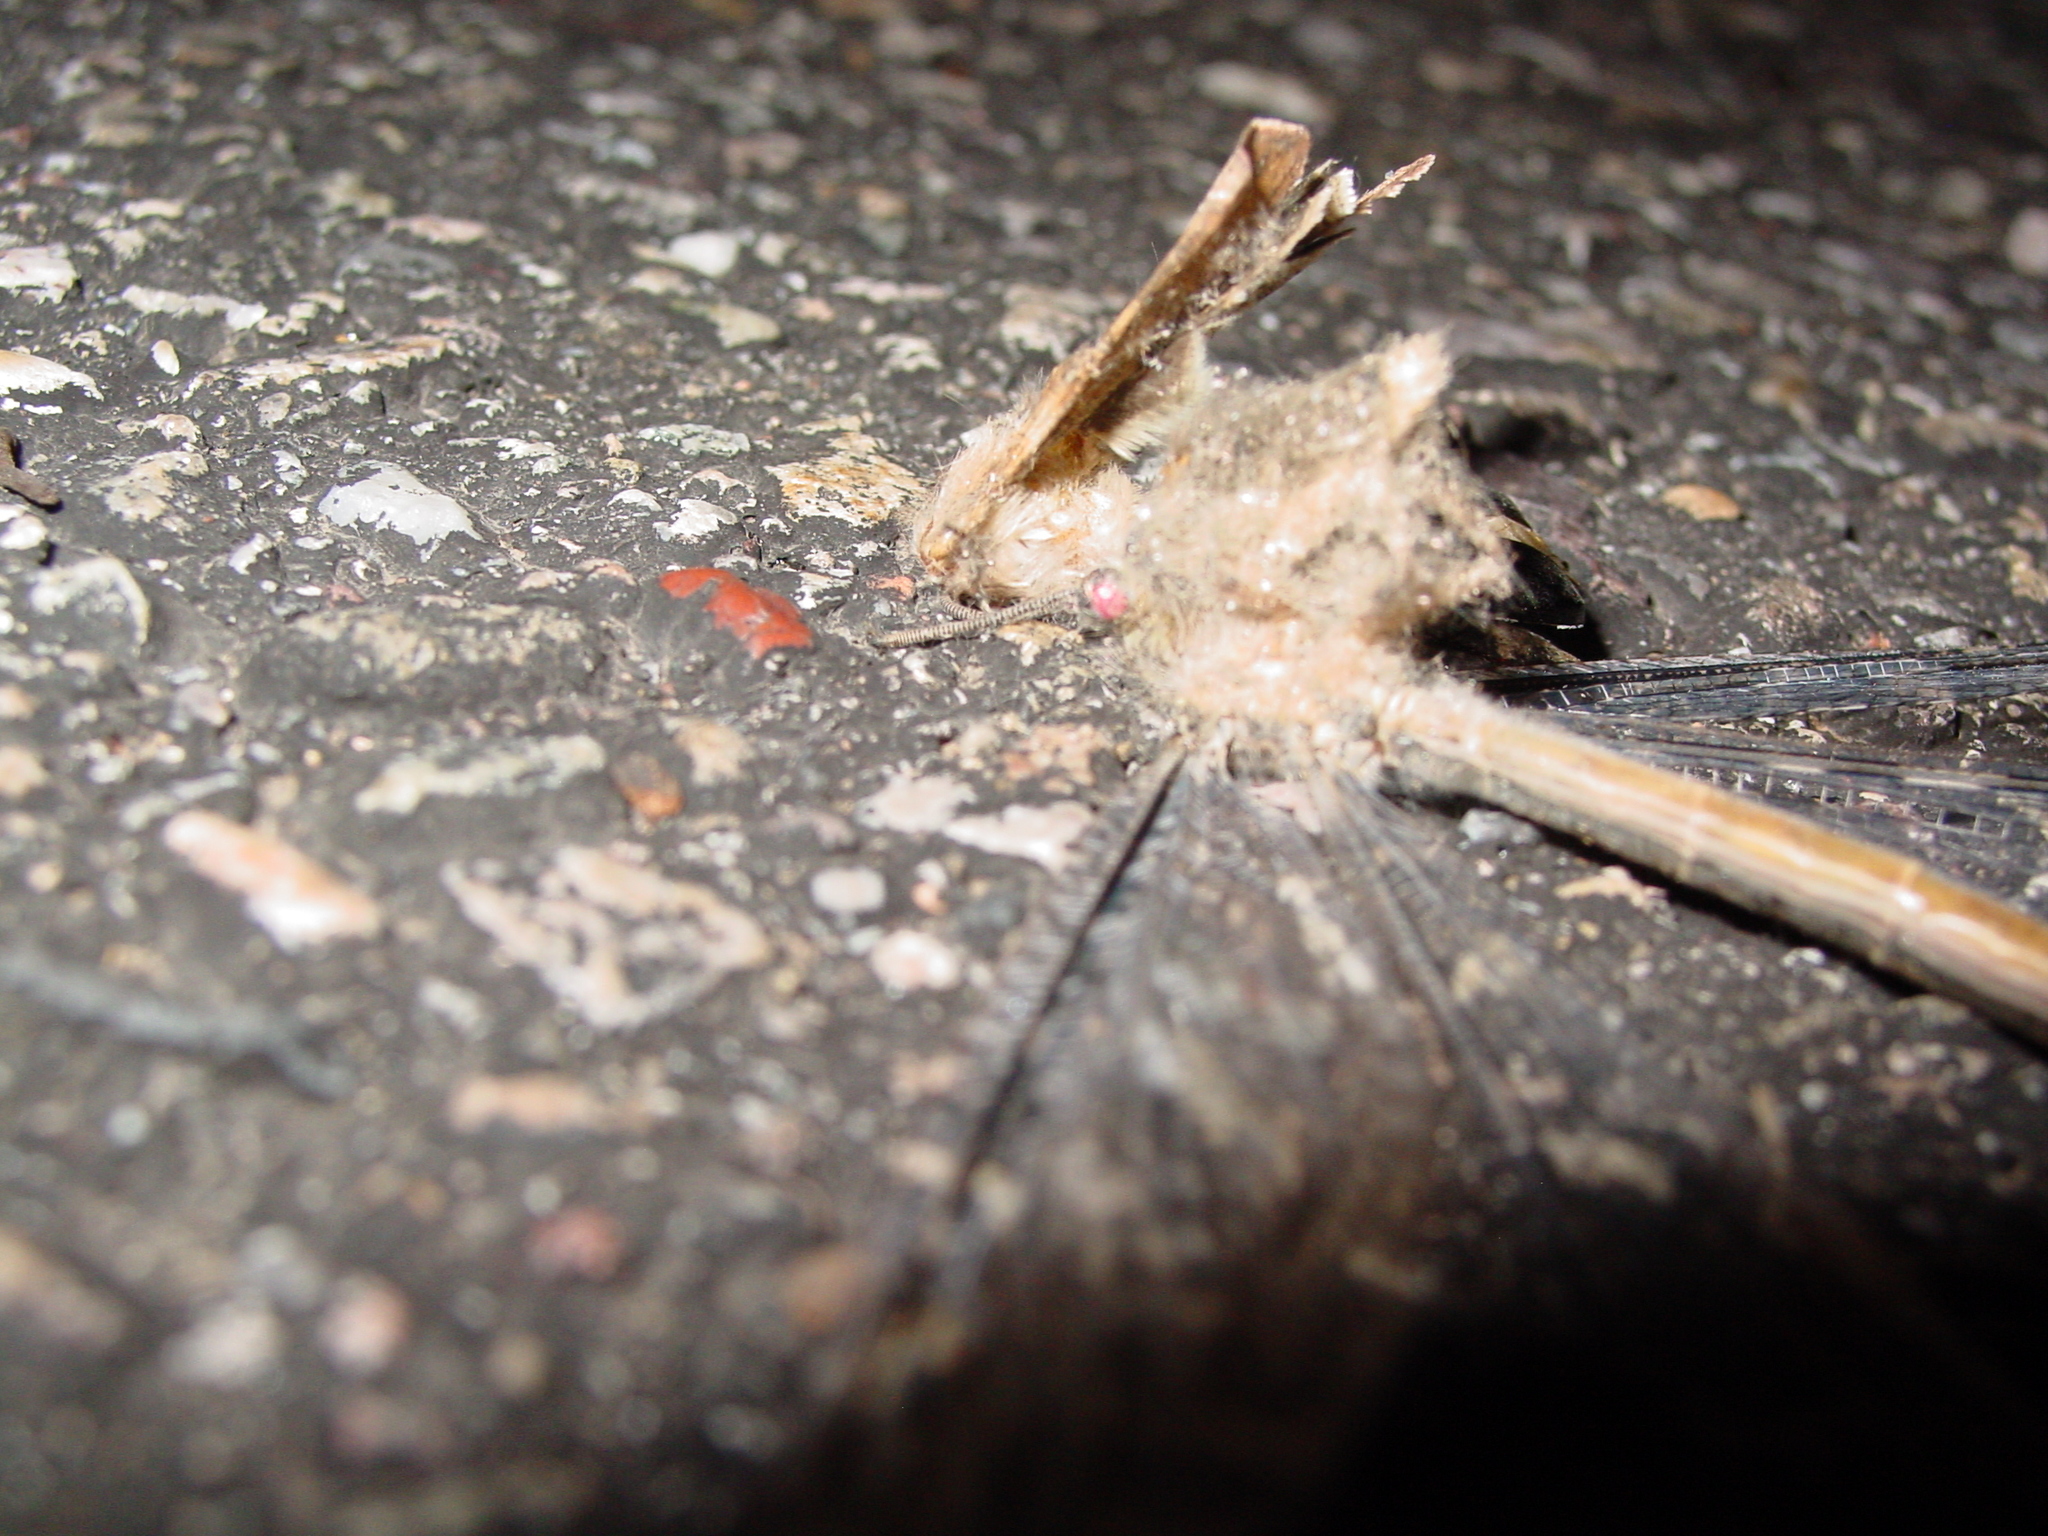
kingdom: Animalia
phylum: Arthropoda
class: Insecta
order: Neuroptera
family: Myrmeleontidae
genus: Vella
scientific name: Vella fallax
